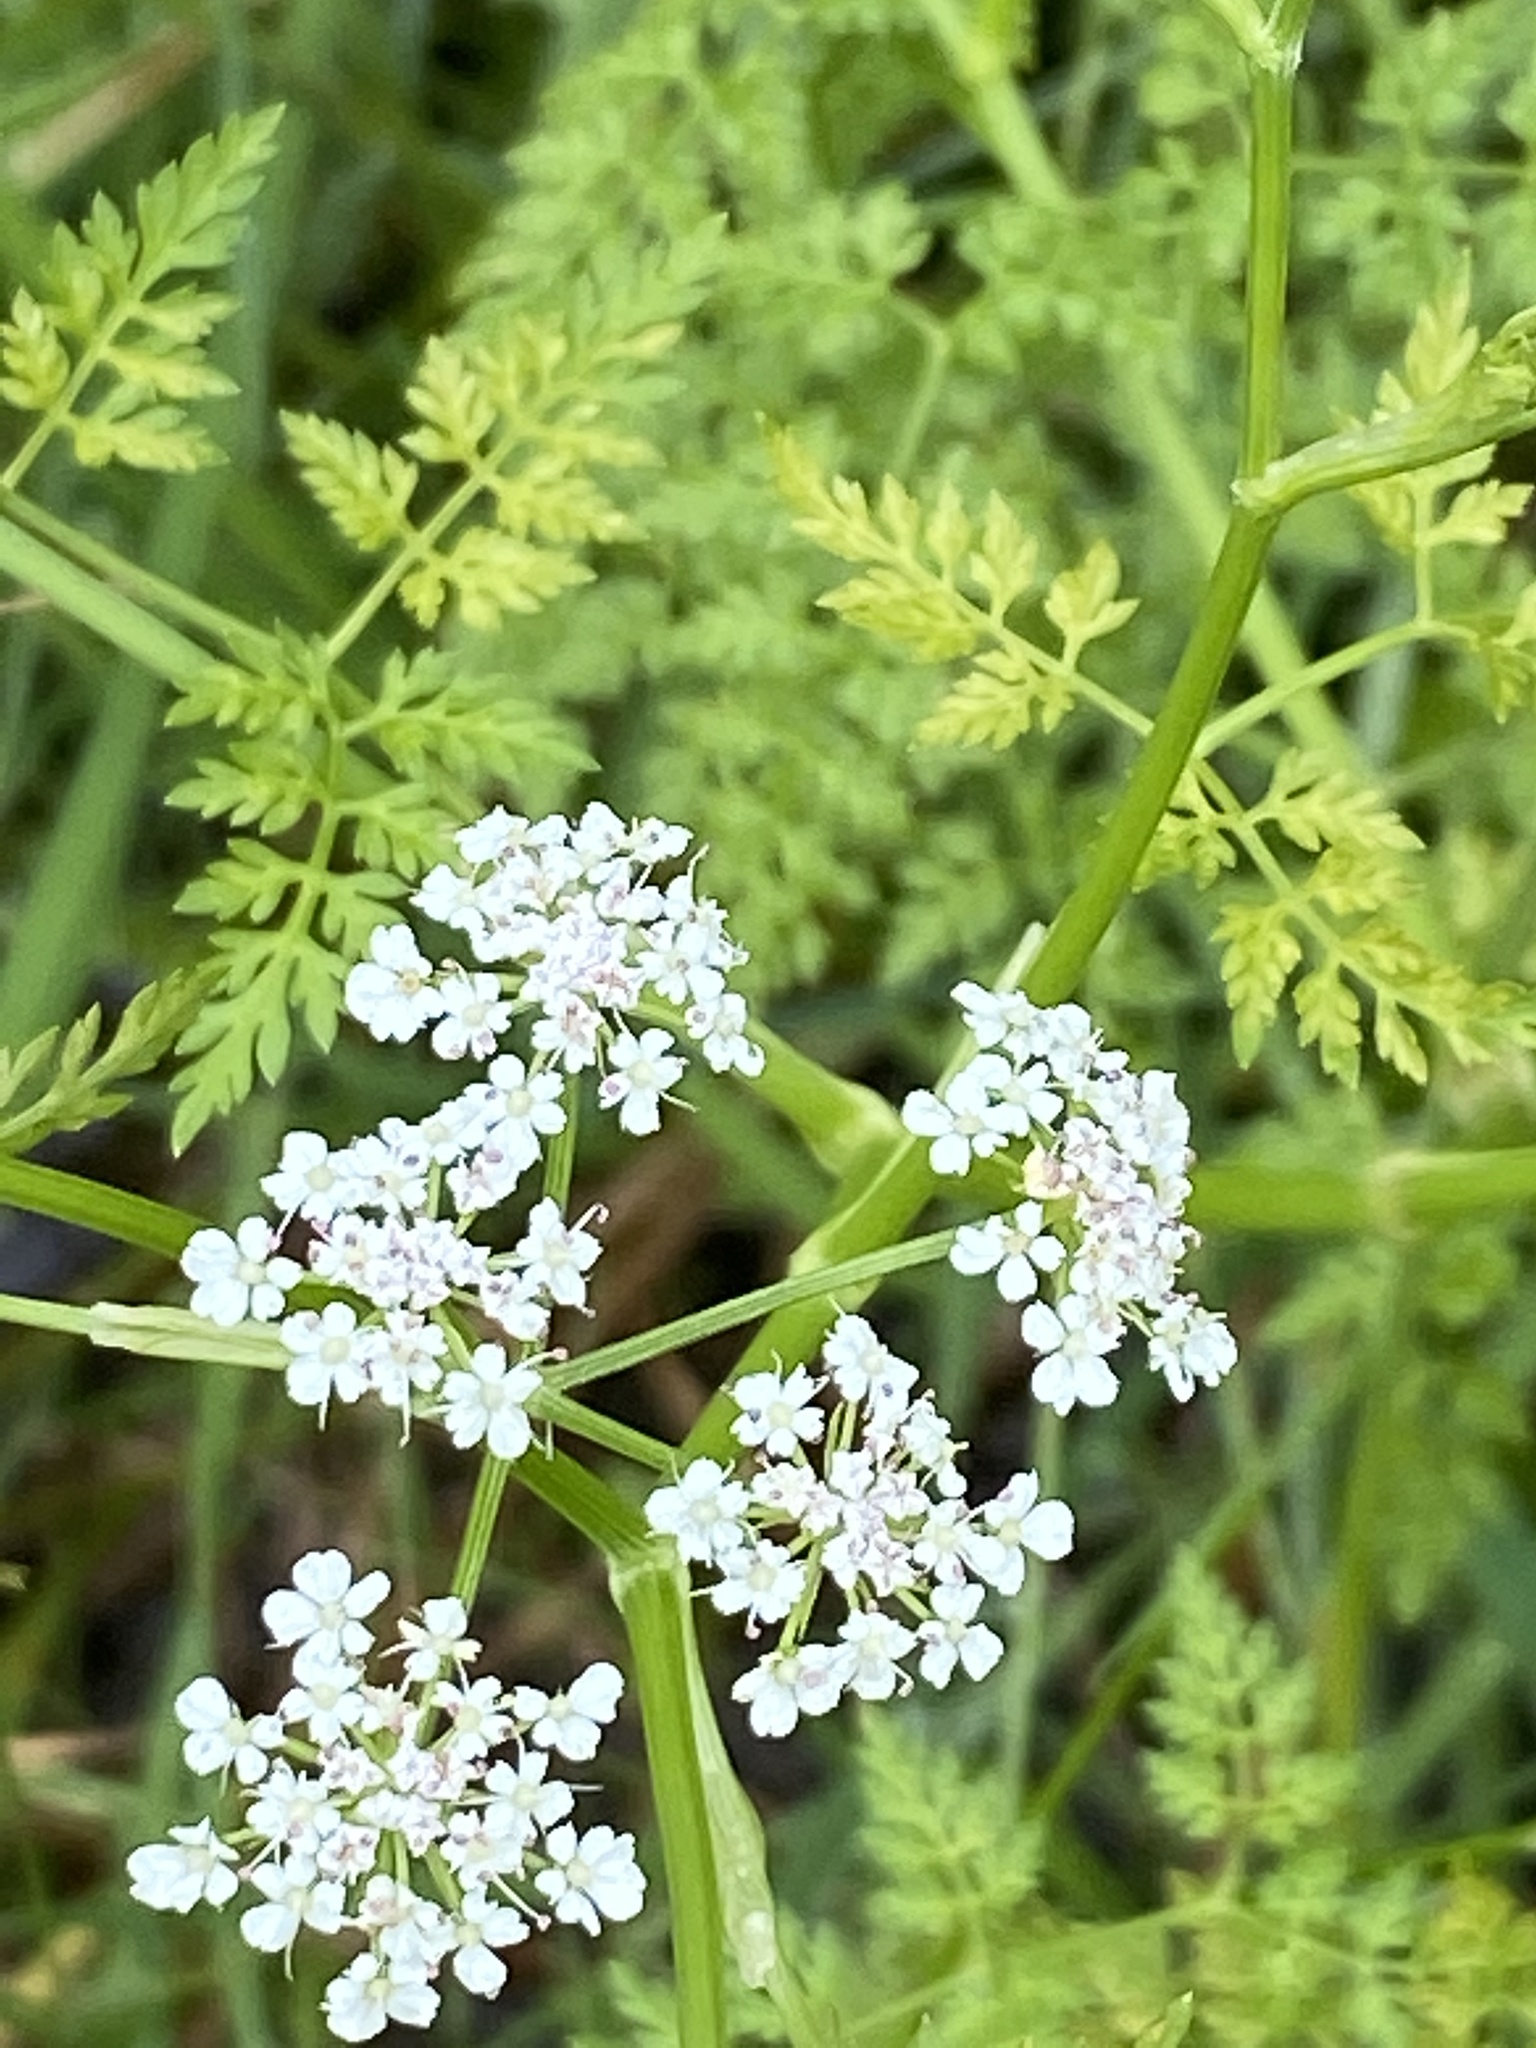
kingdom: Plantae
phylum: Tracheophyta
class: Magnoliopsida
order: Apiales
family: Apiaceae
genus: Oenanthe
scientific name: Oenanthe aquatica
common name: Fine-leaved water-dropwort
